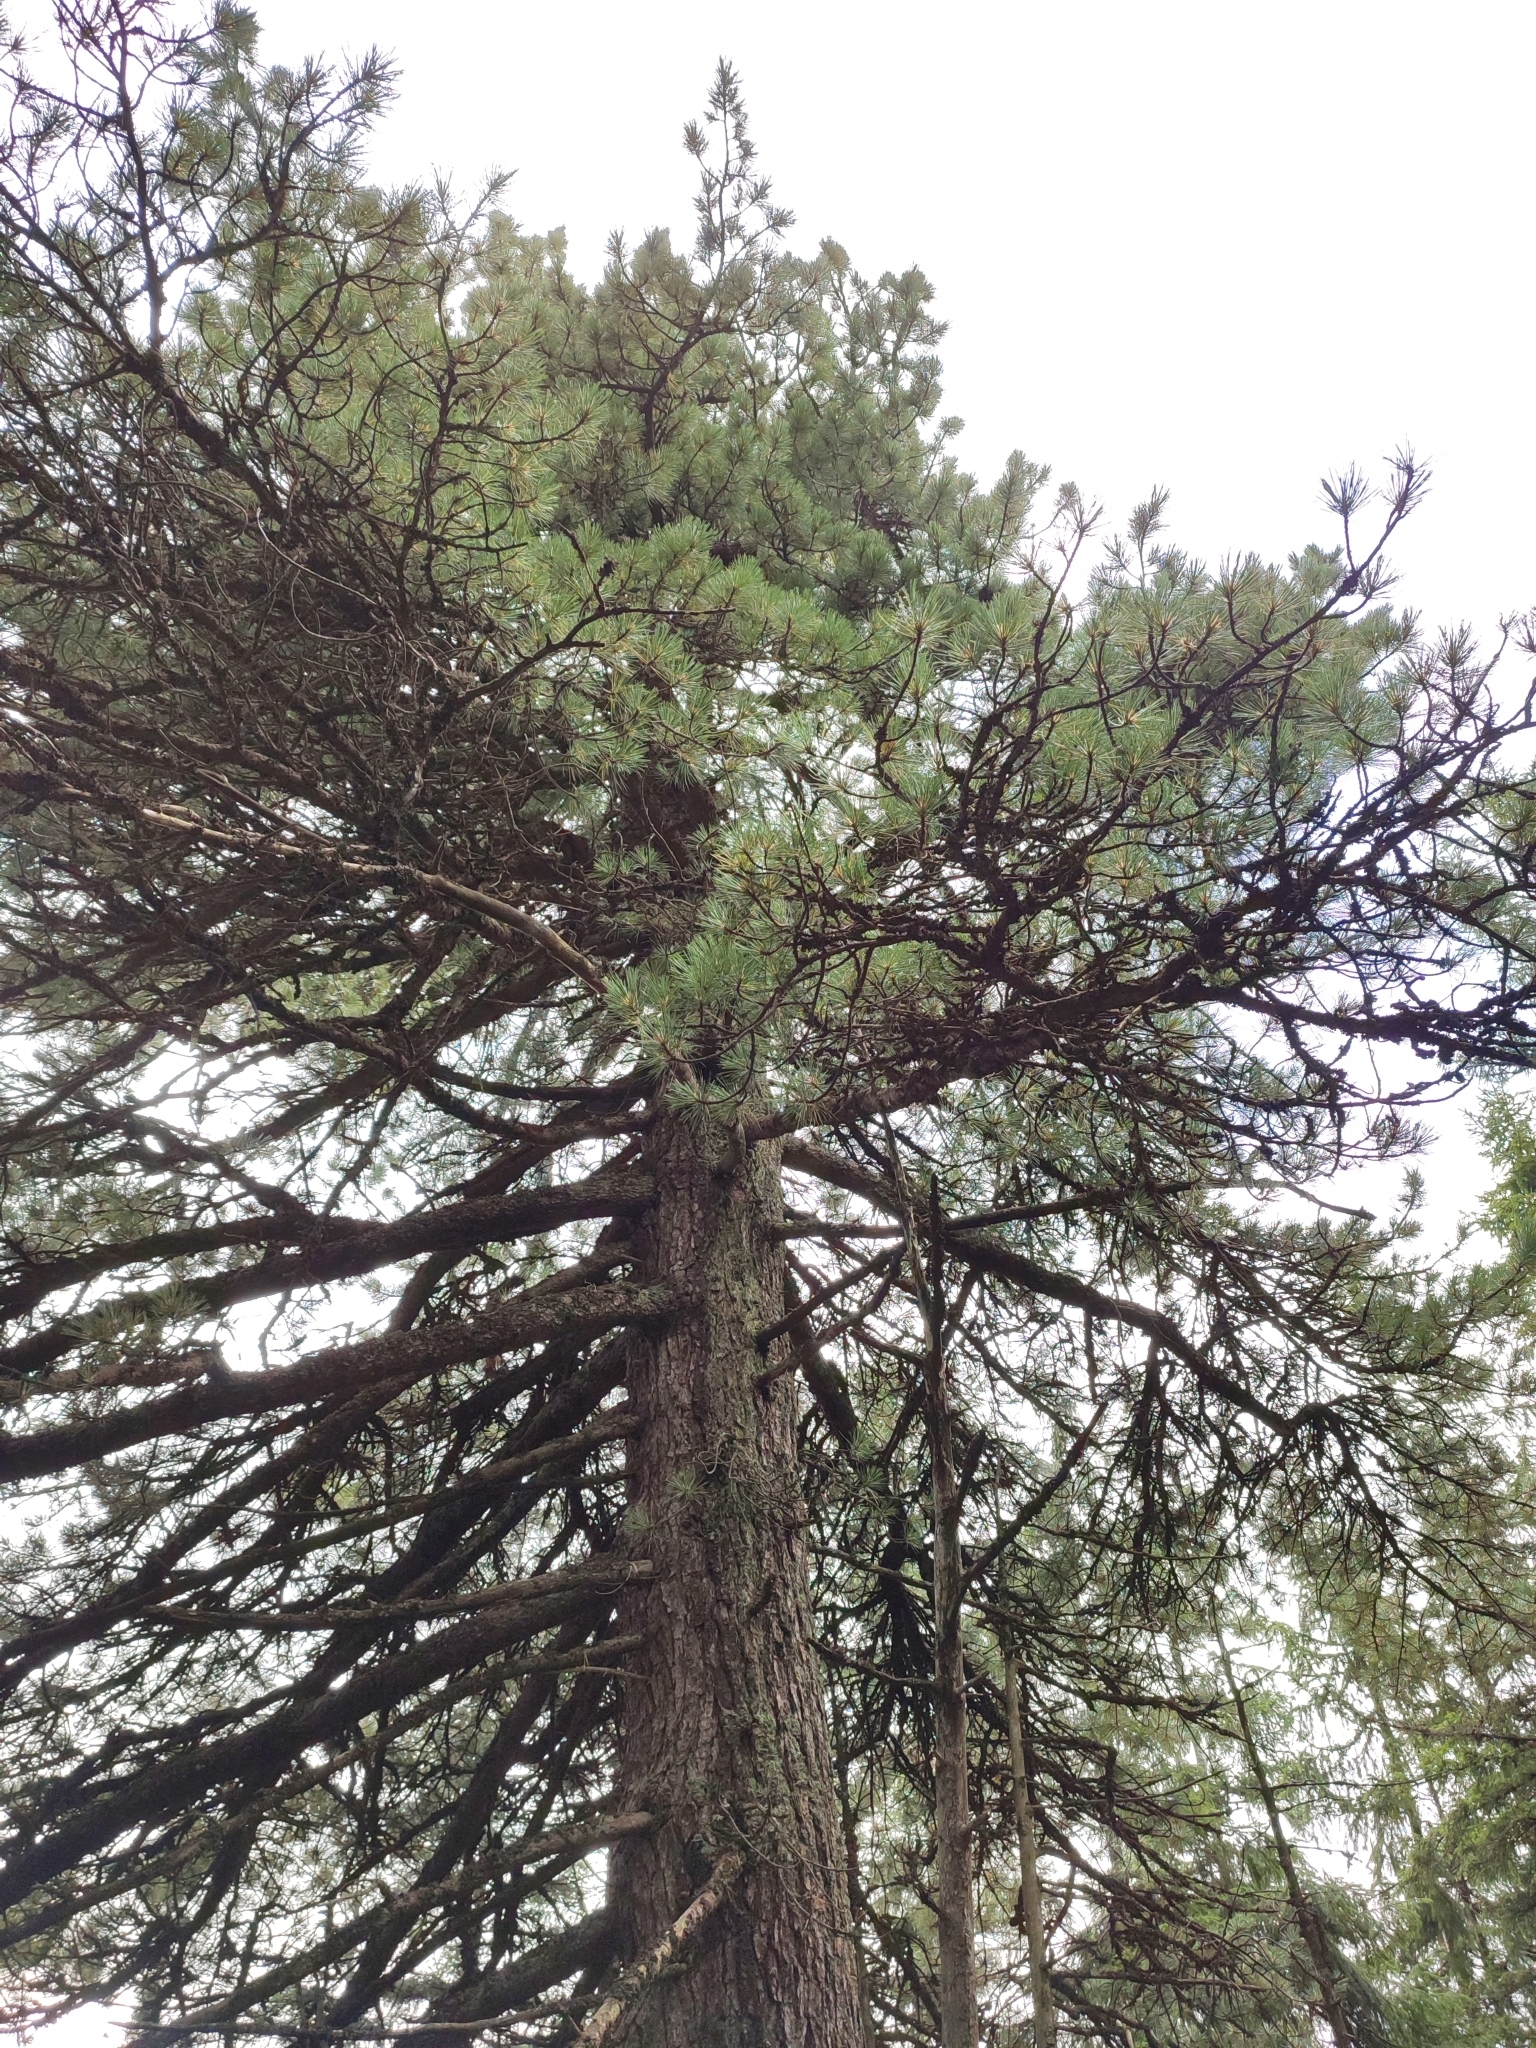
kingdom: Plantae
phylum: Tracheophyta
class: Pinopsida
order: Pinales
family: Pinaceae
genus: Pinus
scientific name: Pinus cembra
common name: Arolla pine
